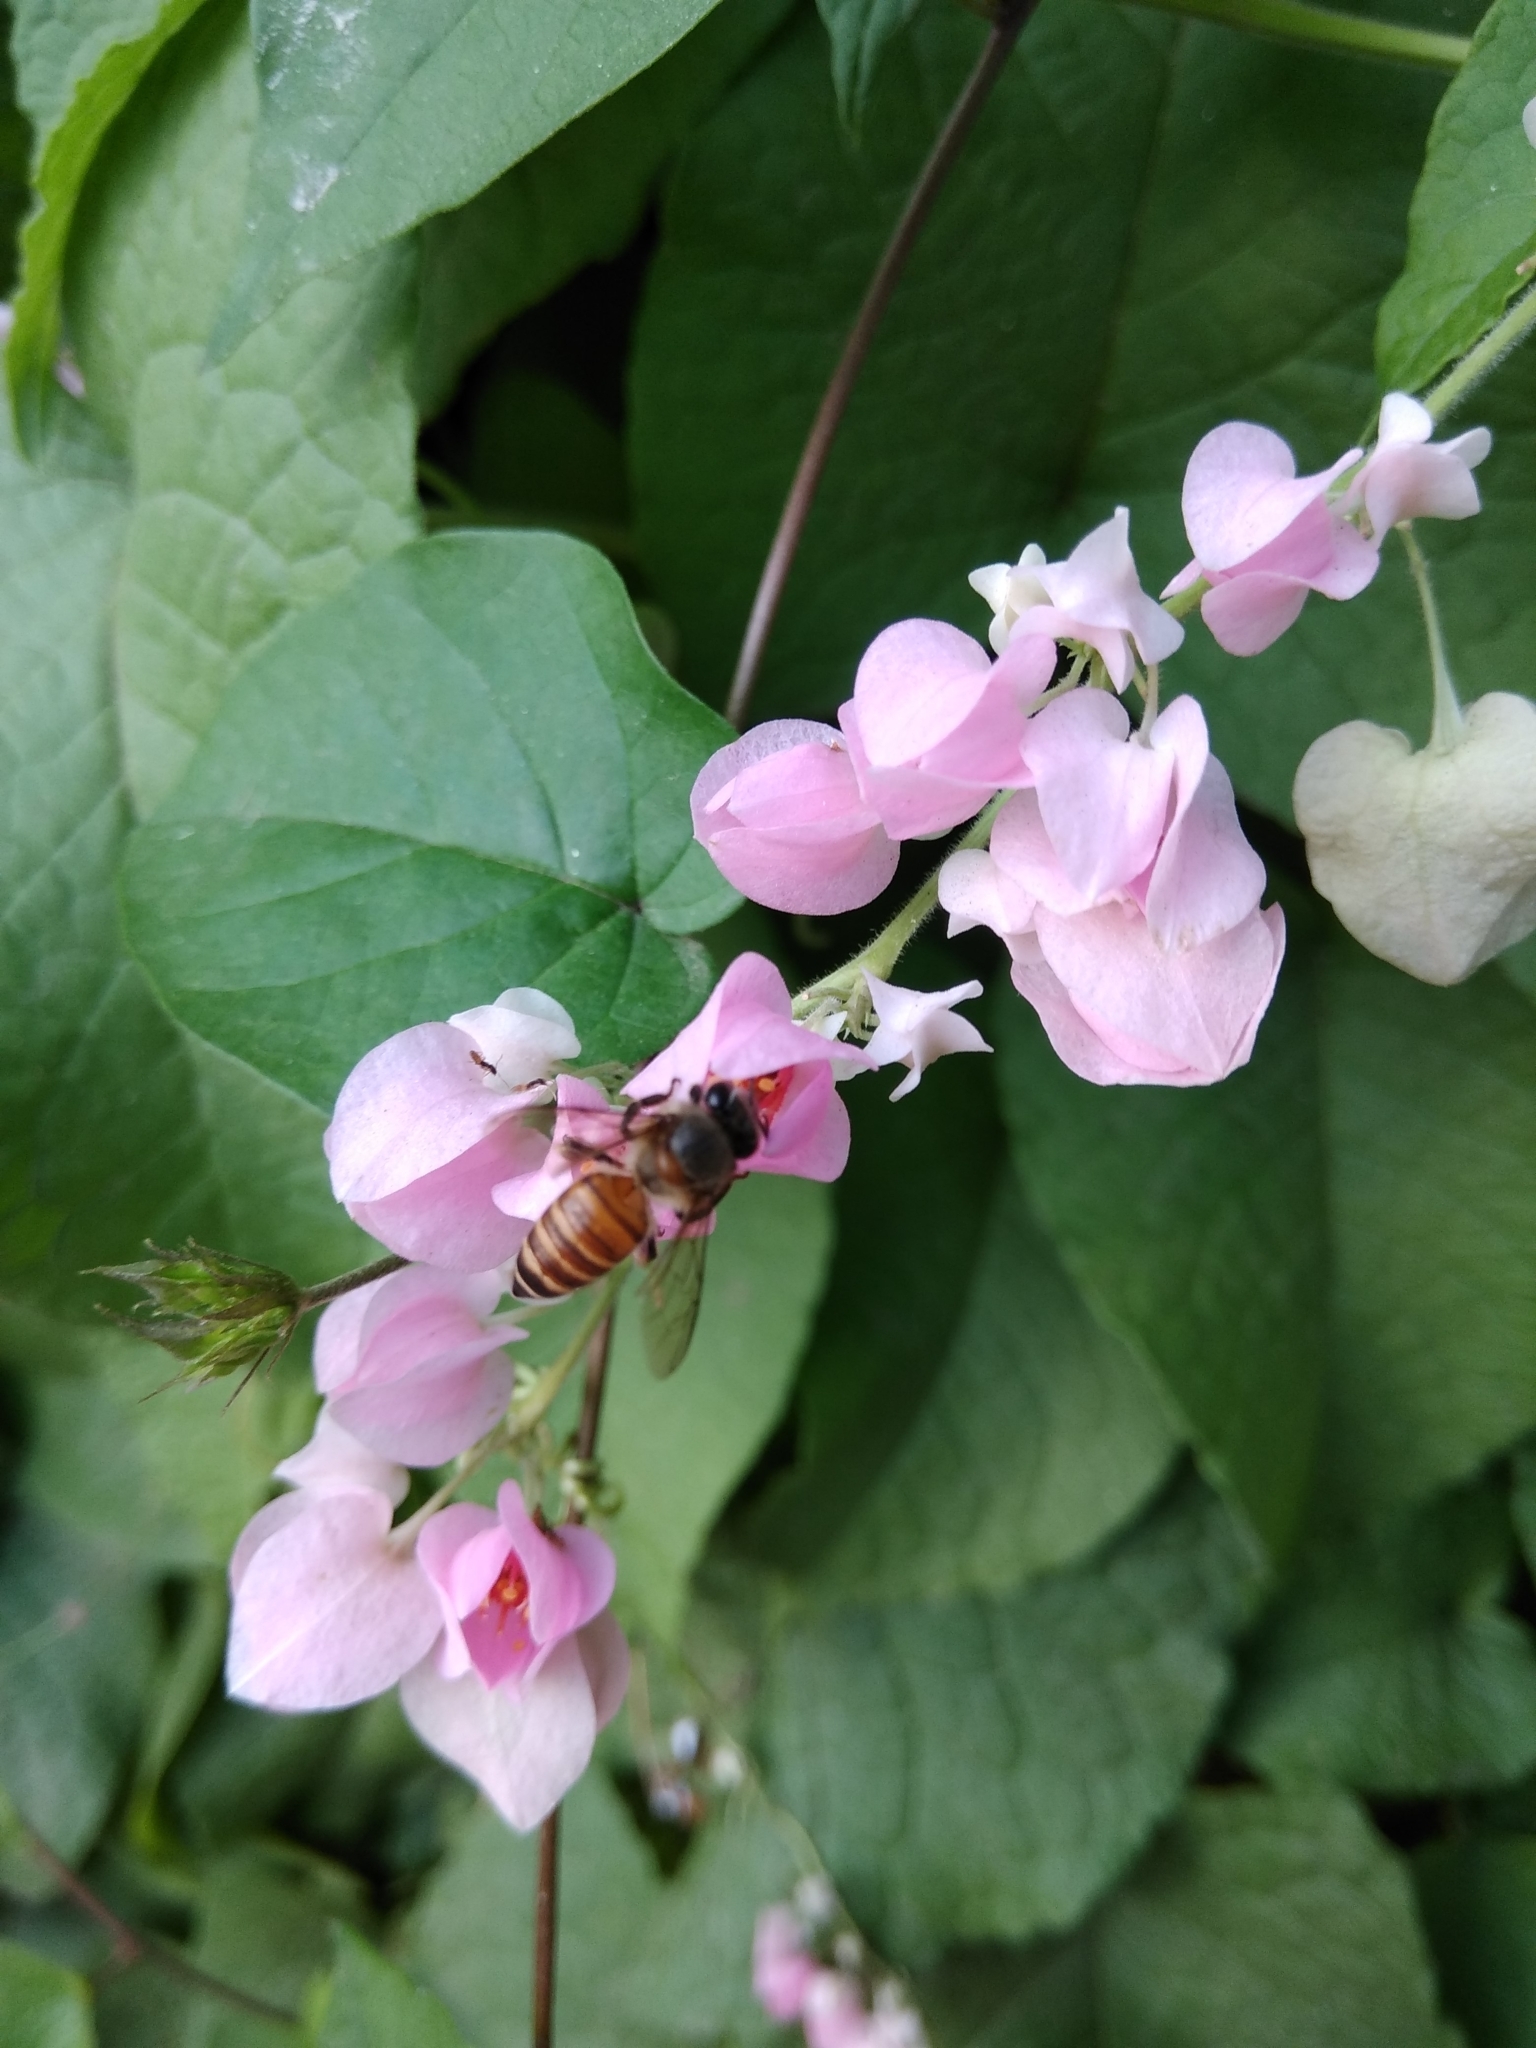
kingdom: Animalia
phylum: Arthropoda
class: Insecta
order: Hymenoptera
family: Apidae
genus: Apis
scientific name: Apis cerana
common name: Honey bee
